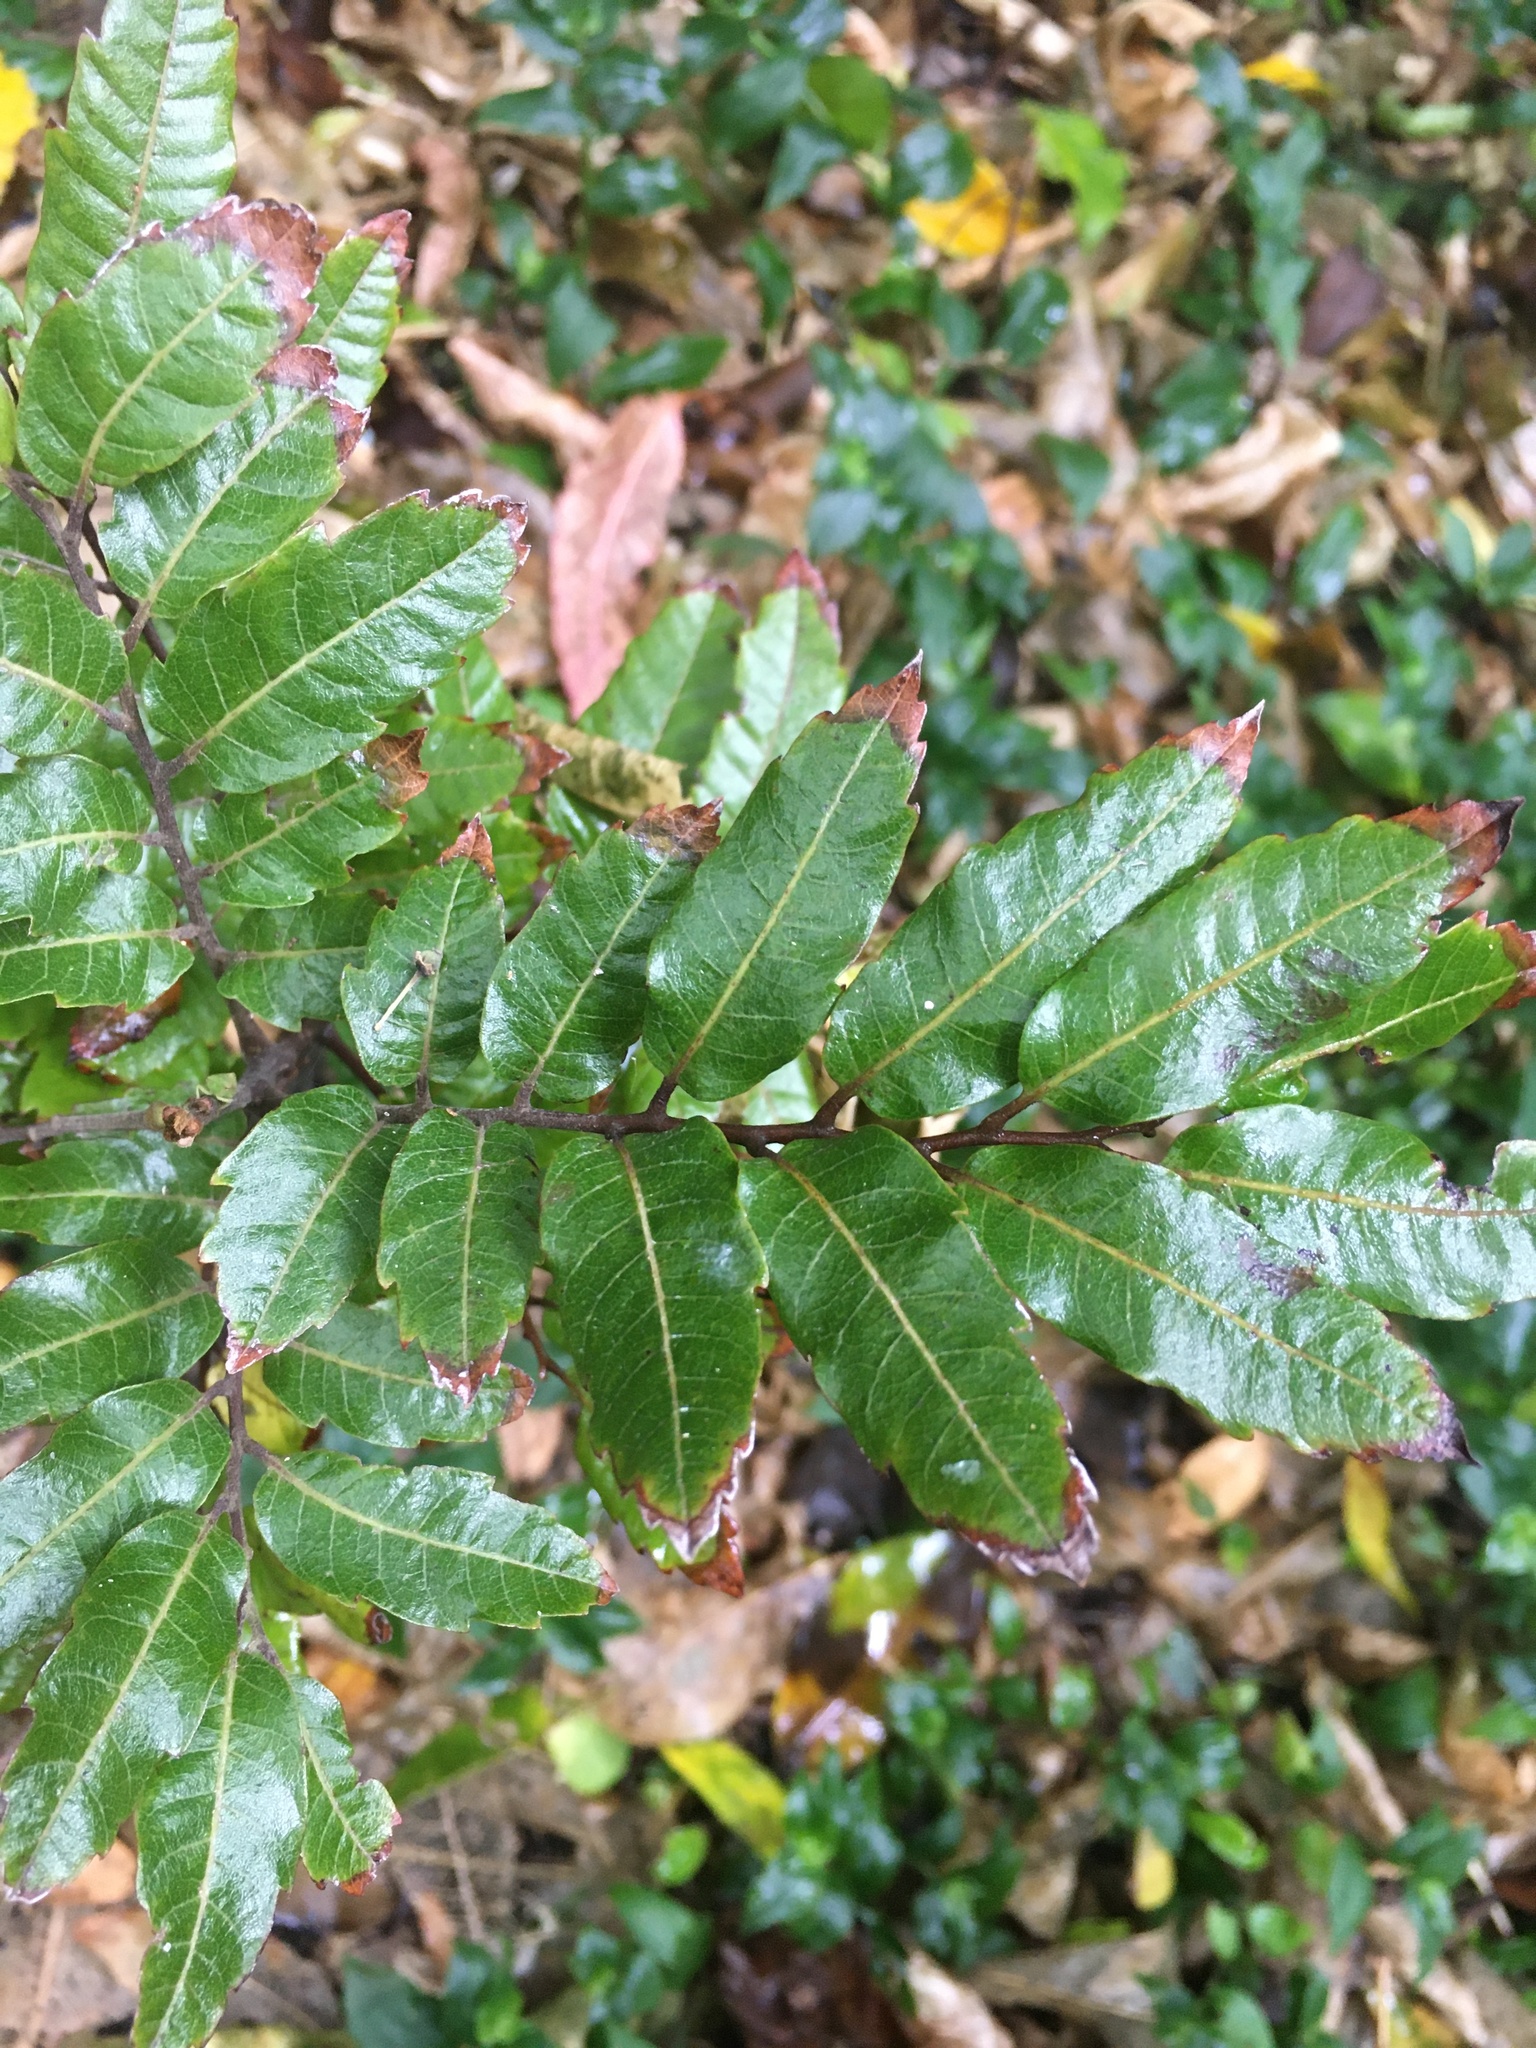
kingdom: Plantae
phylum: Tracheophyta
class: Magnoliopsida
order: Sapindales
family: Sapindaceae
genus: Alectryon
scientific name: Alectryon excelsus
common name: Three kings titoki
